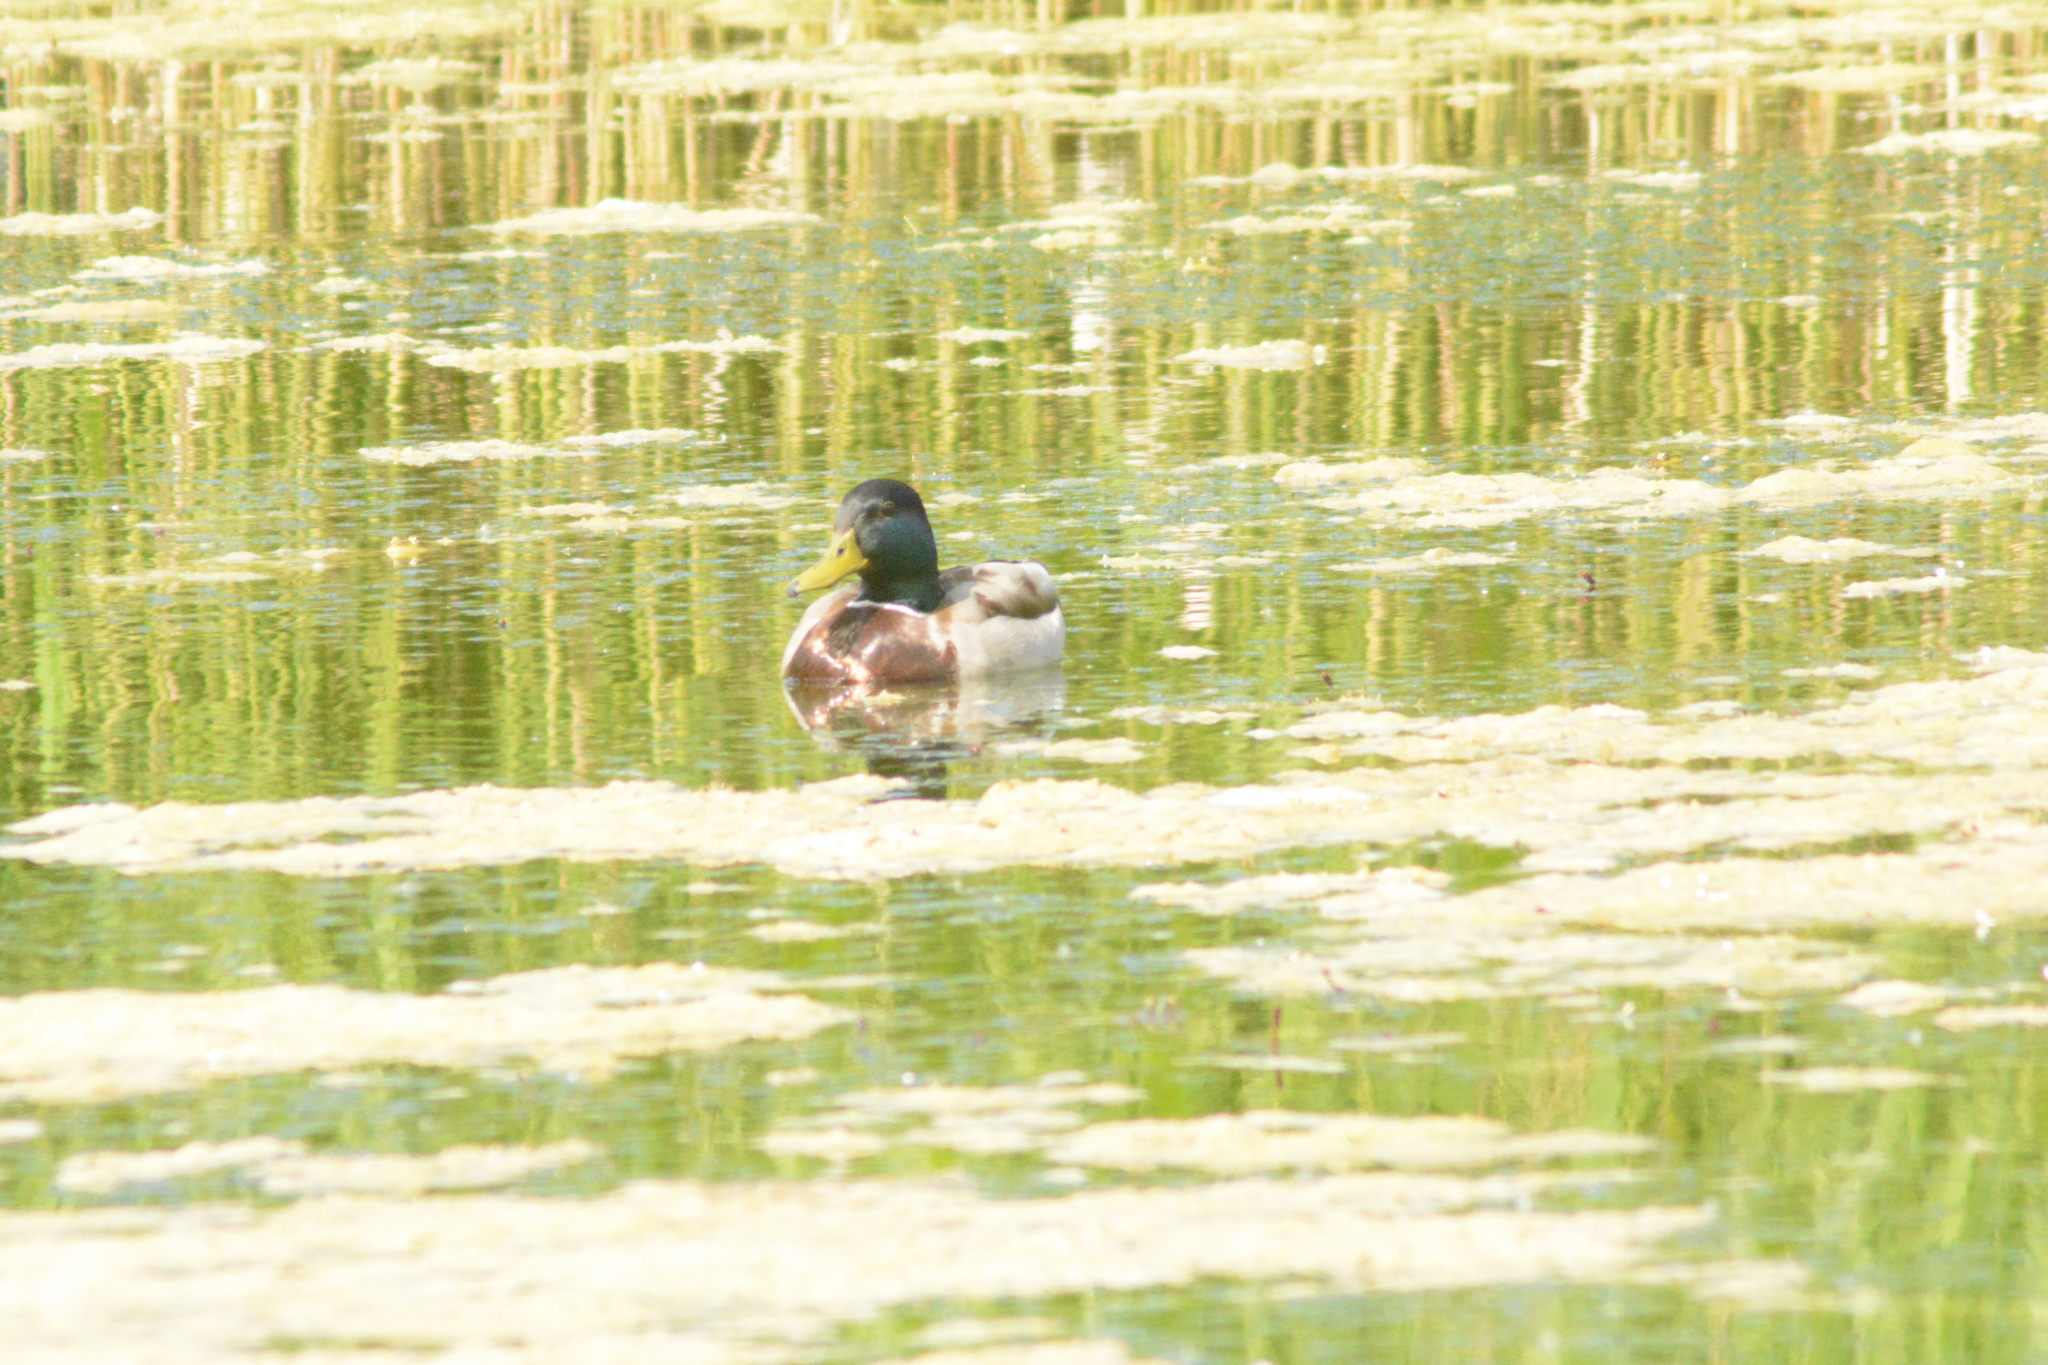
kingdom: Animalia
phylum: Chordata
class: Aves
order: Anseriformes
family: Anatidae
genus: Anas
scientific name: Anas platyrhynchos
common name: Mallard
